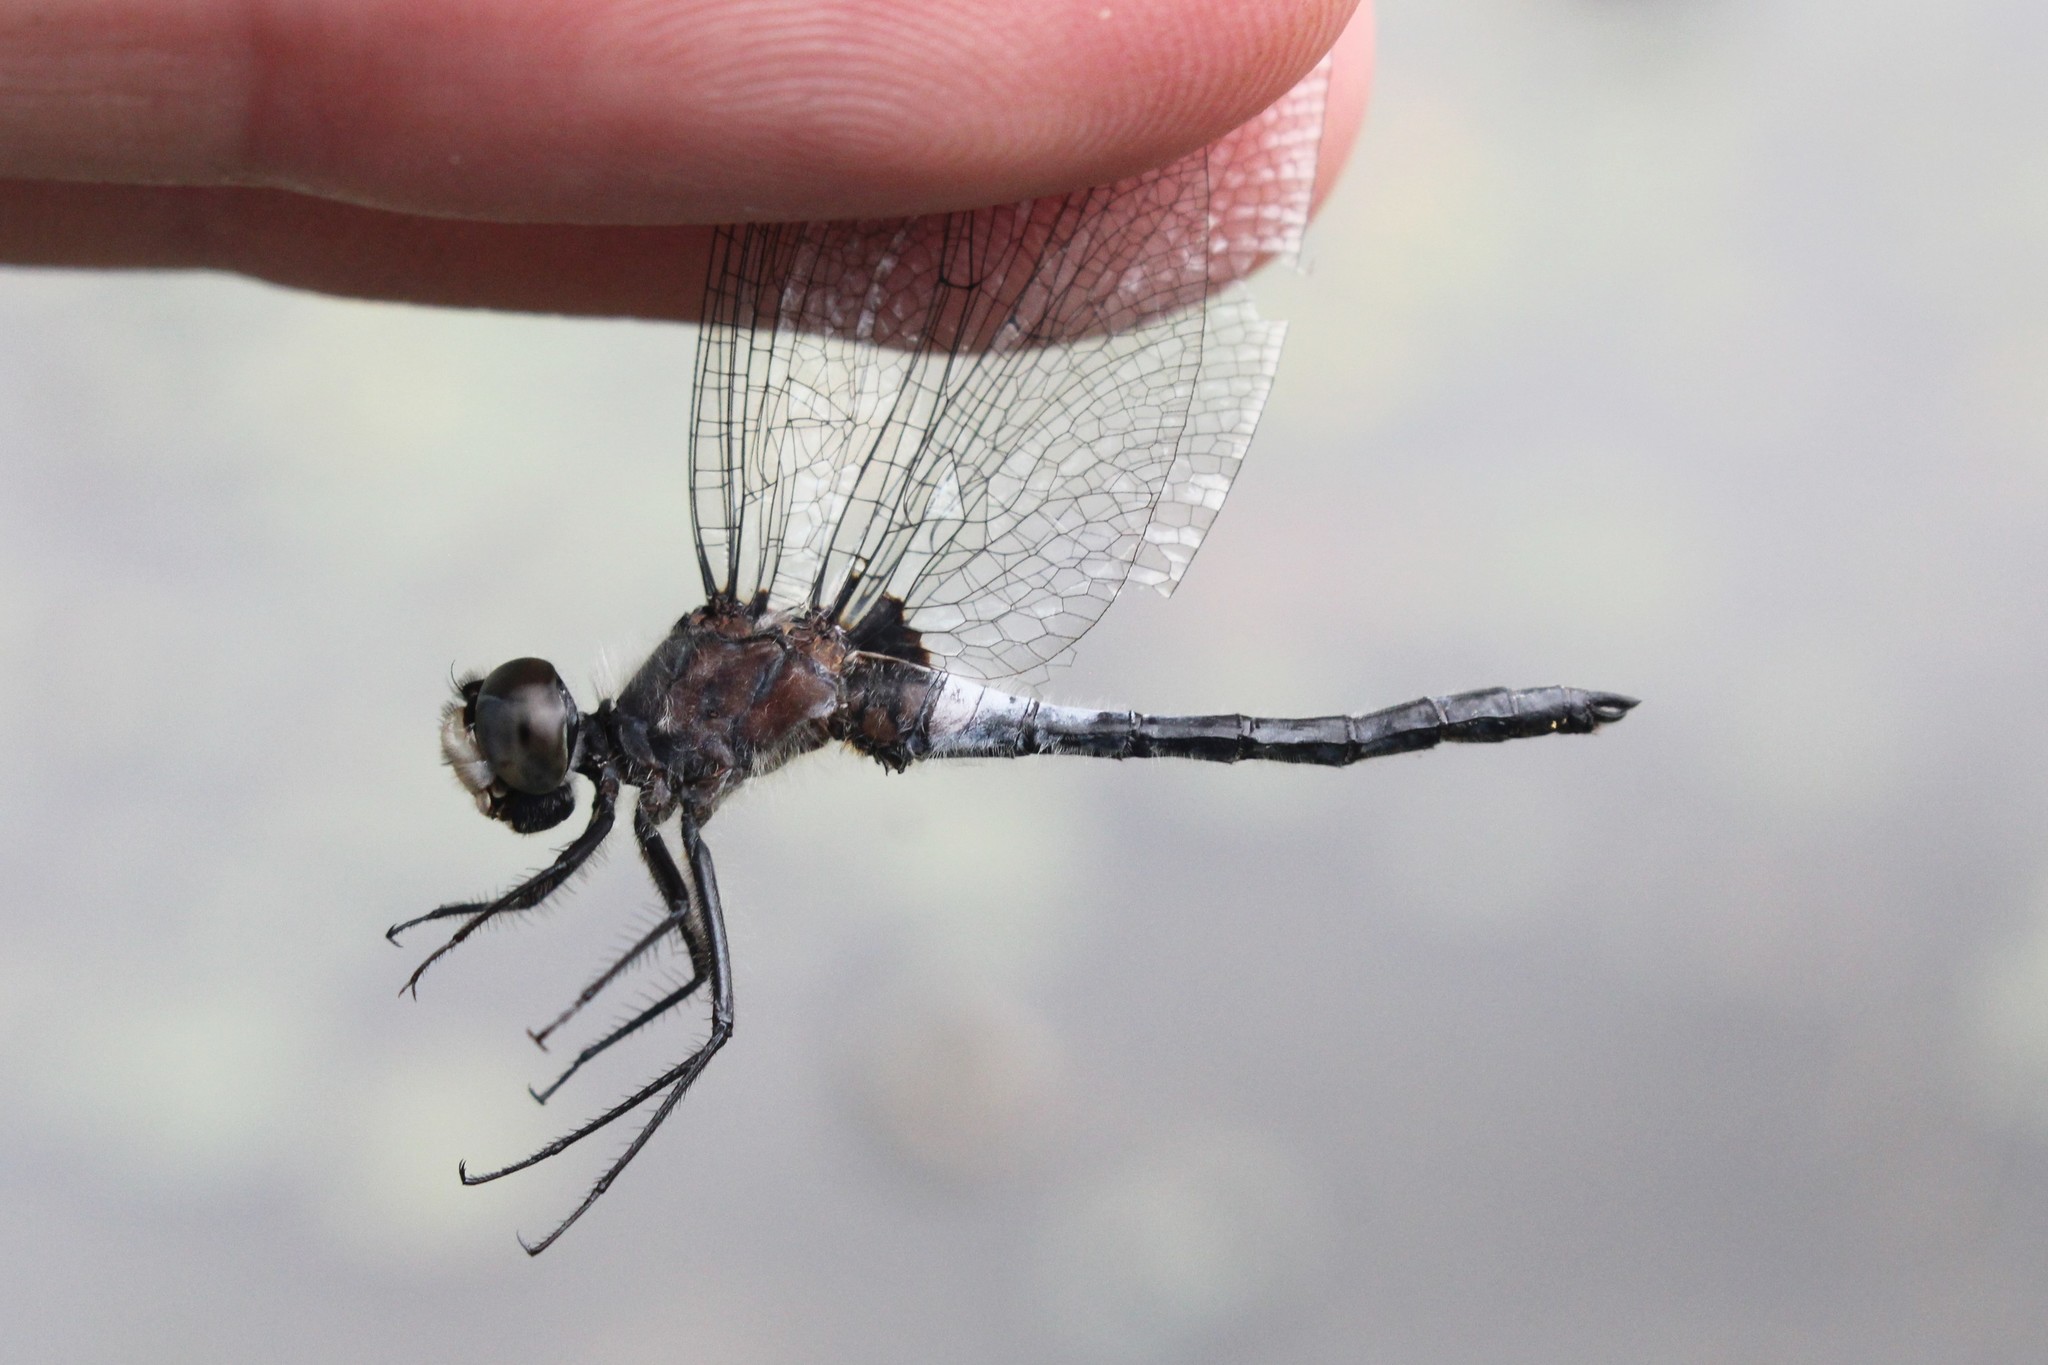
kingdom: Animalia
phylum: Arthropoda
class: Insecta
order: Odonata
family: Libellulidae
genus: Leucorrhinia
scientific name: Leucorrhinia frigida
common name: Frosted whiteface
